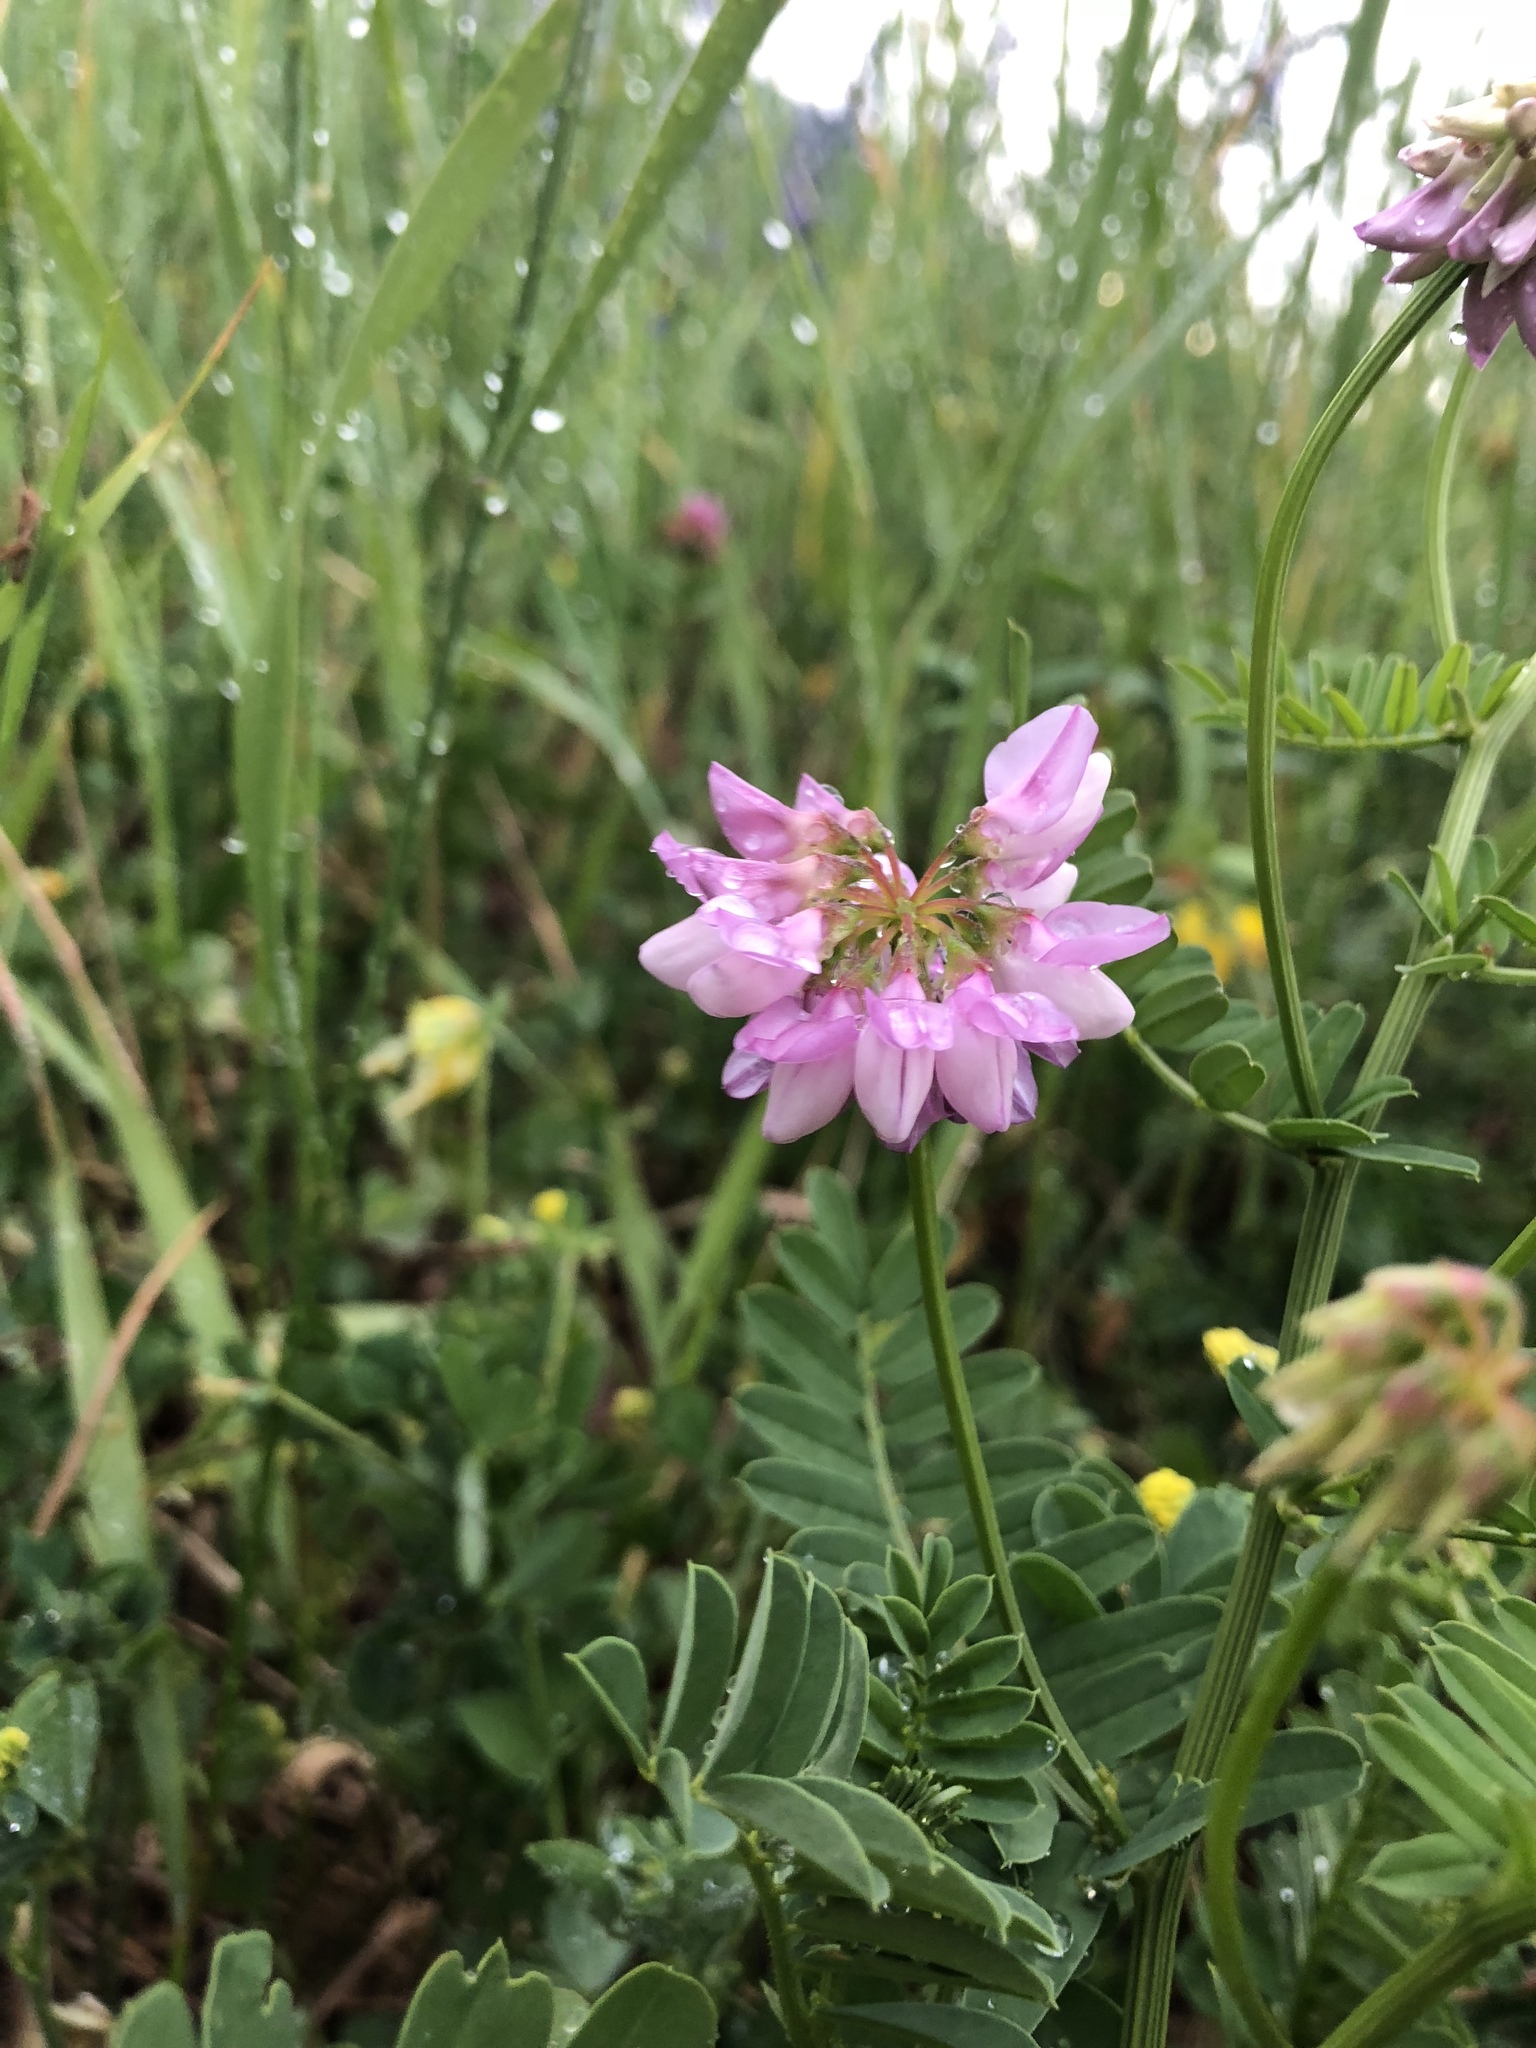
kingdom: Plantae
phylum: Tracheophyta
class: Magnoliopsida
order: Fabales
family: Fabaceae
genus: Coronilla
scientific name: Coronilla varia
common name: Crownvetch
